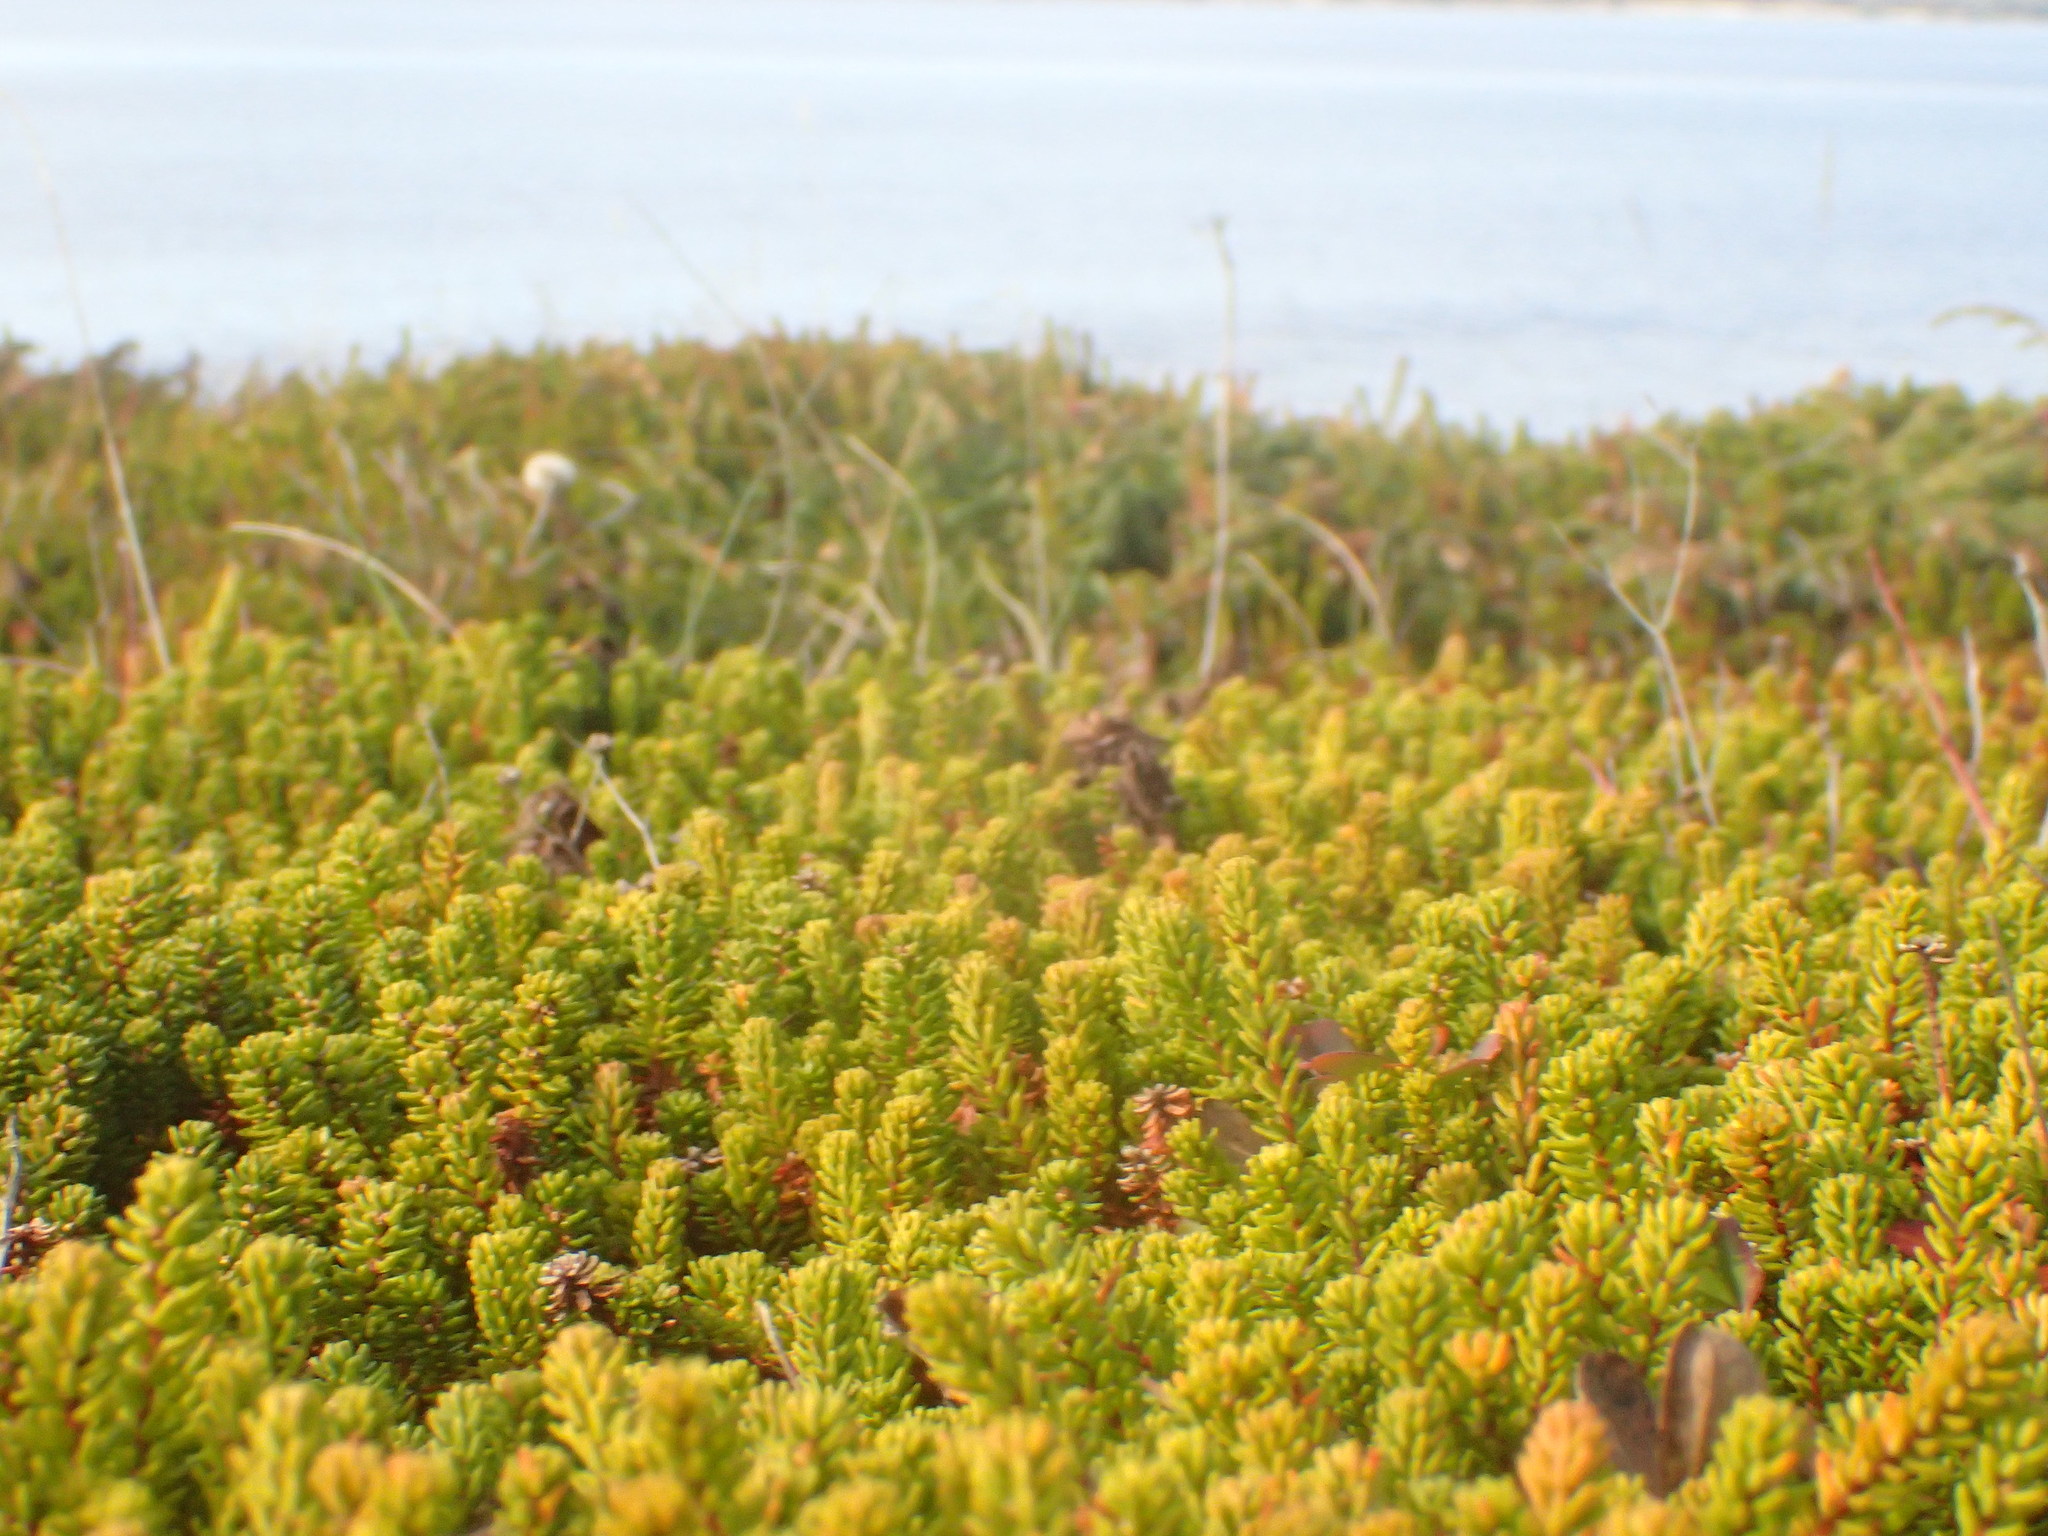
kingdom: Plantae
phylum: Tracheophyta
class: Magnoliopsida
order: Ericales
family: Ericaceae
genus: Empetrum
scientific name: Empetrum nigrum
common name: Black crowberry
